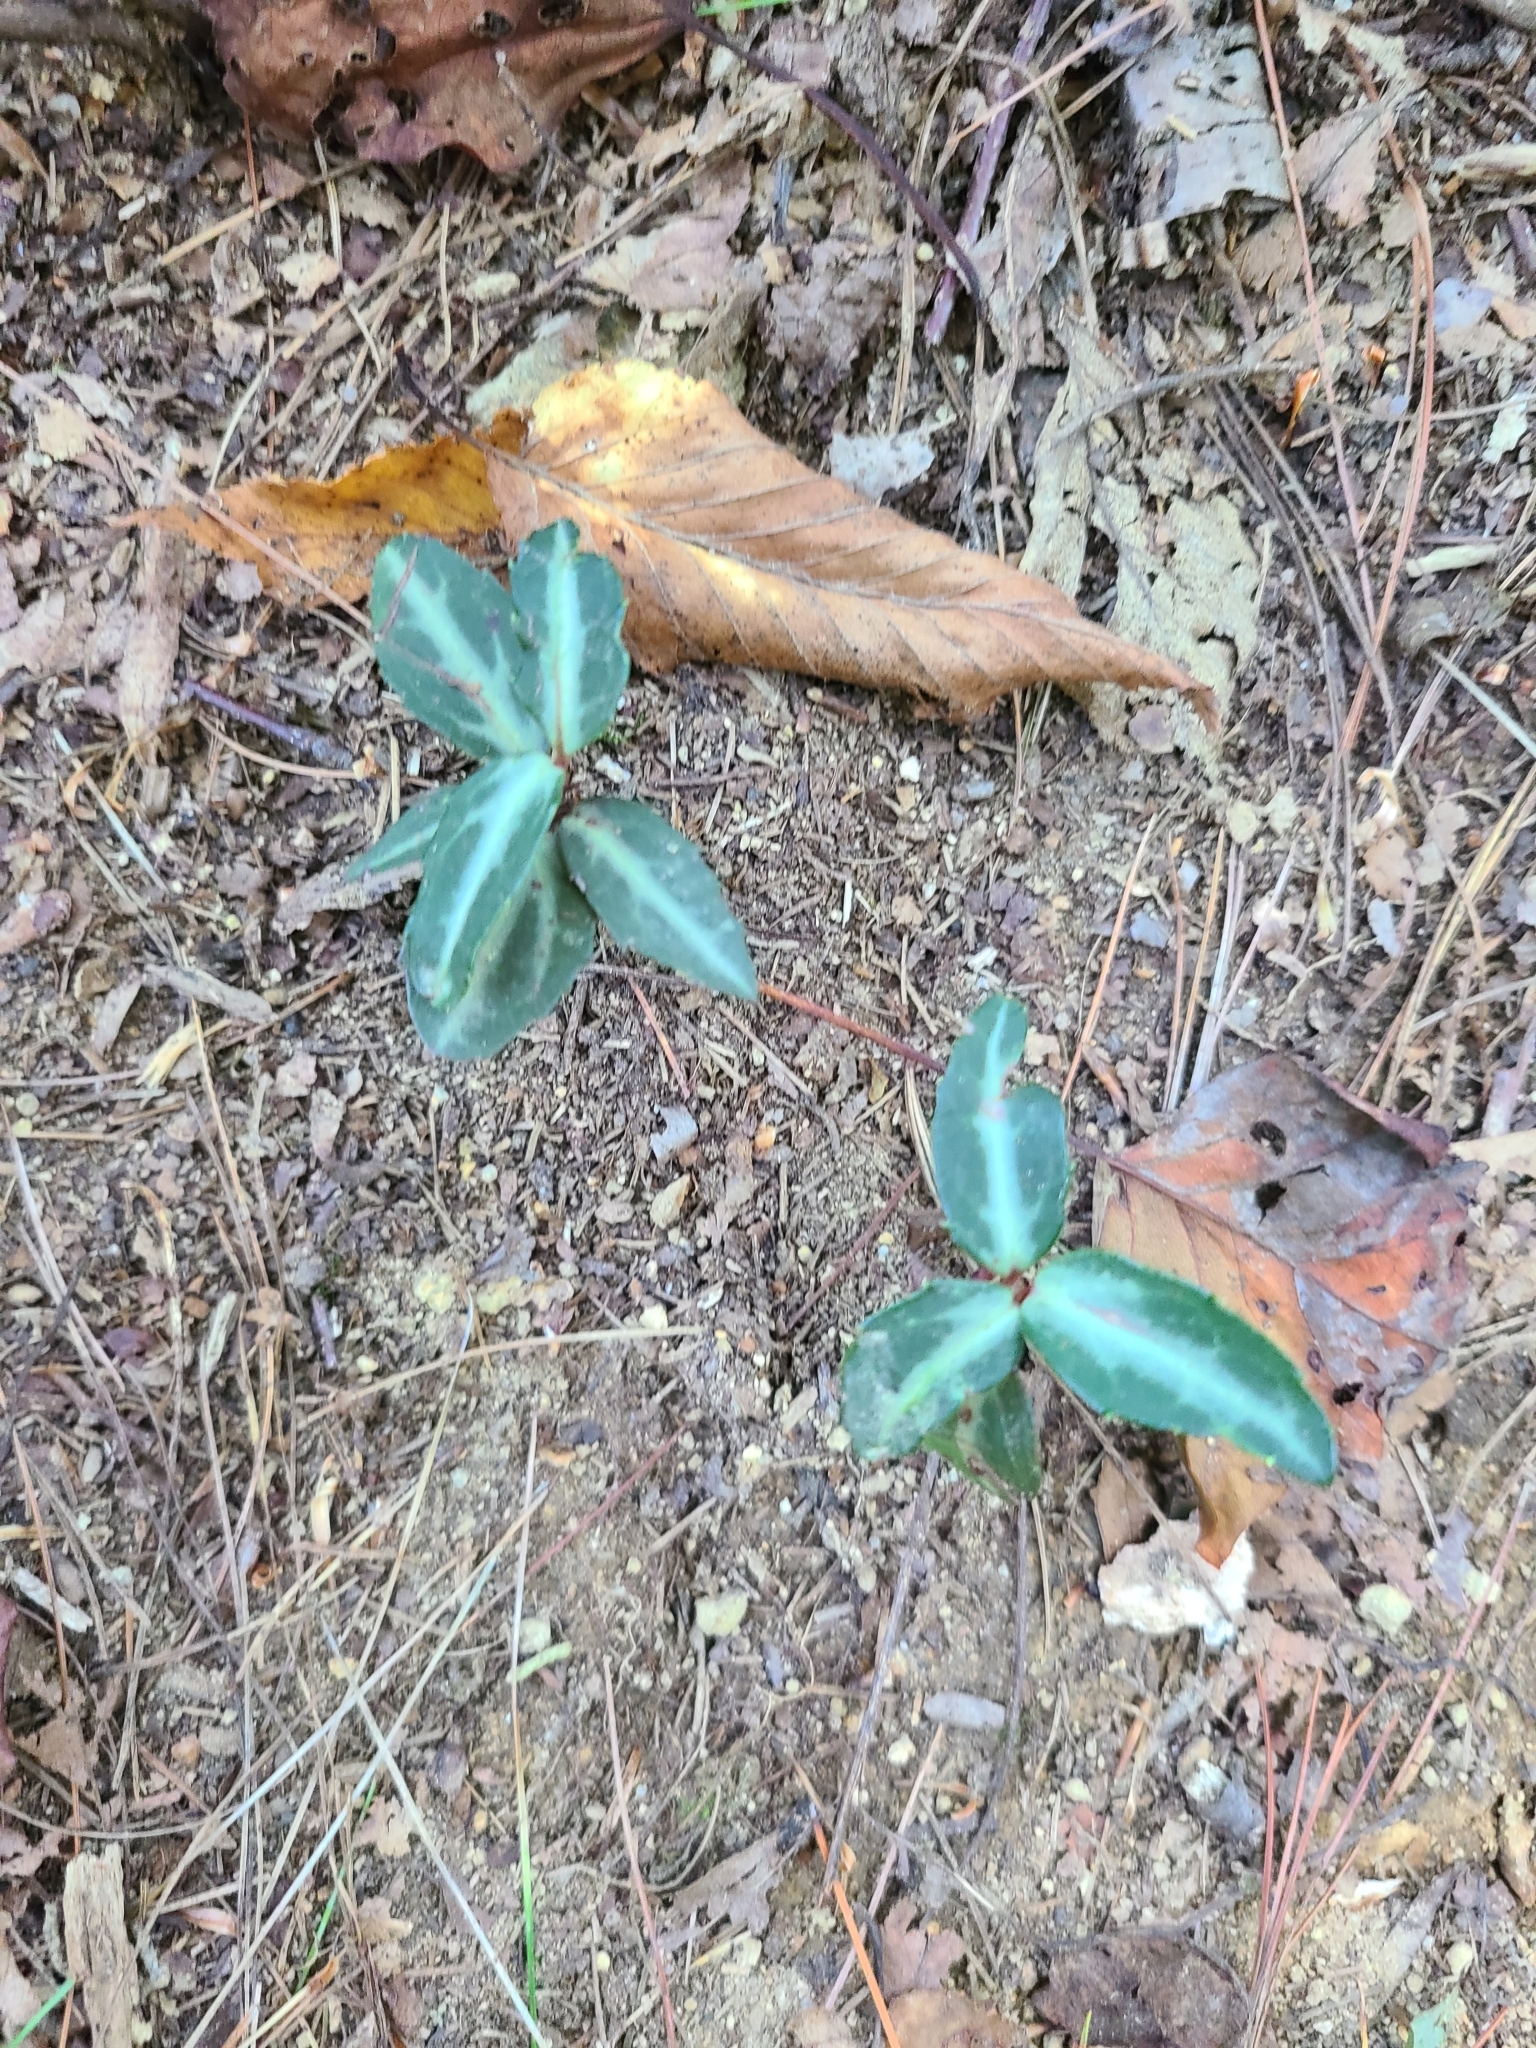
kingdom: Plantae
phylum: Tracheophyta
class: Magnoliopsida
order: Ericales
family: Ericaceae
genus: Chimaphila
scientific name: Chimaphila maculata
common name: Spotted pipsissewa
